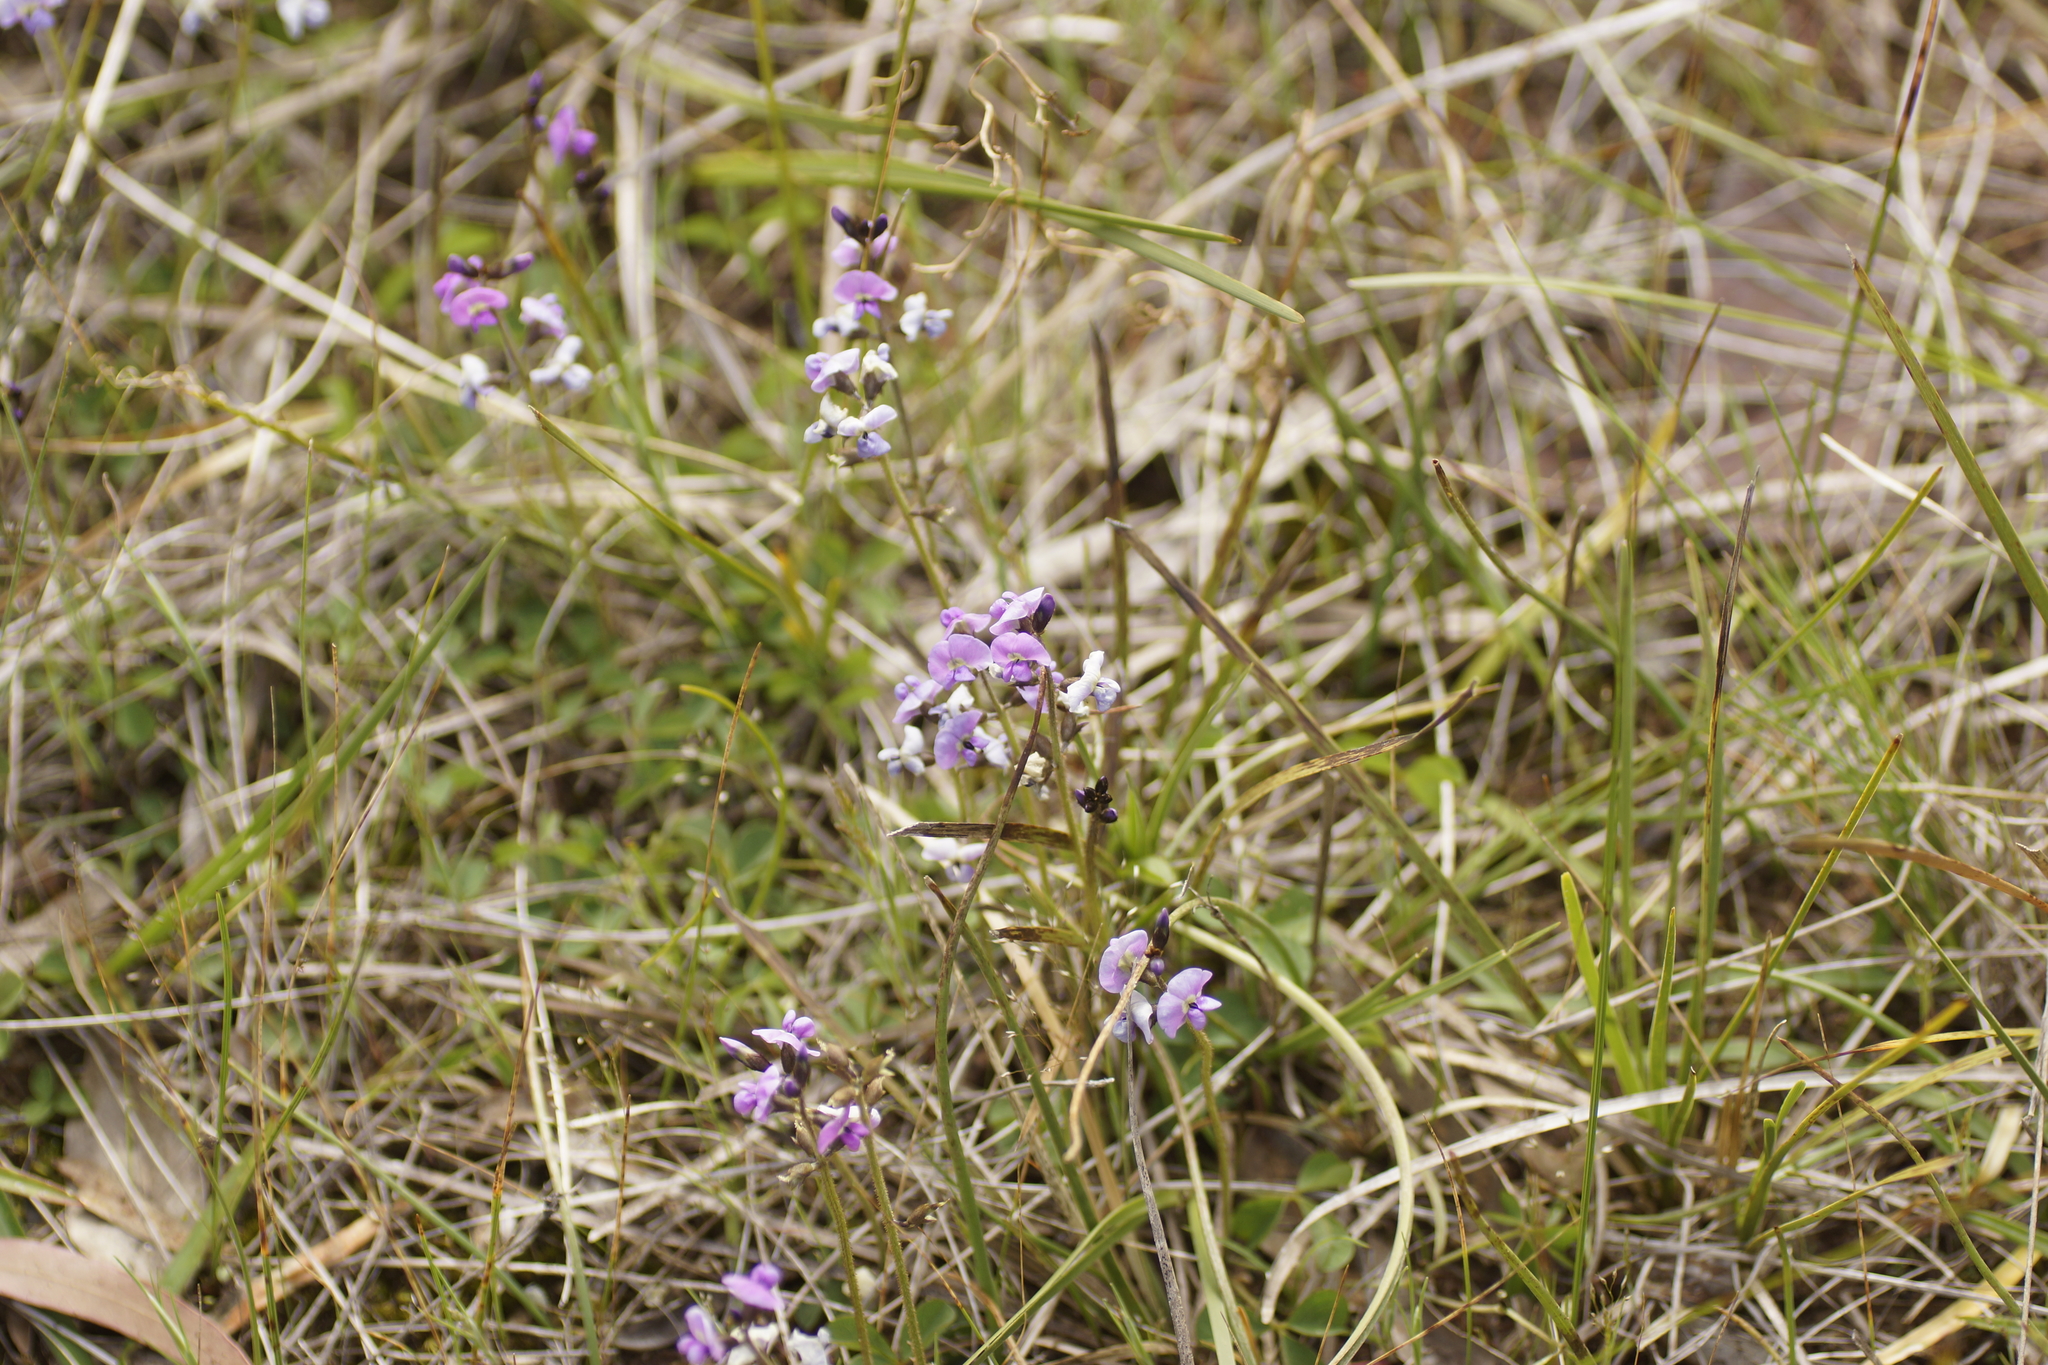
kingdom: Plantae
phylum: Tracheophyta
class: Magnoliopsida
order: Fabales
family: Fabaceae
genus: Glycine
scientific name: Glycine latrobeana
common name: Clover glycine
